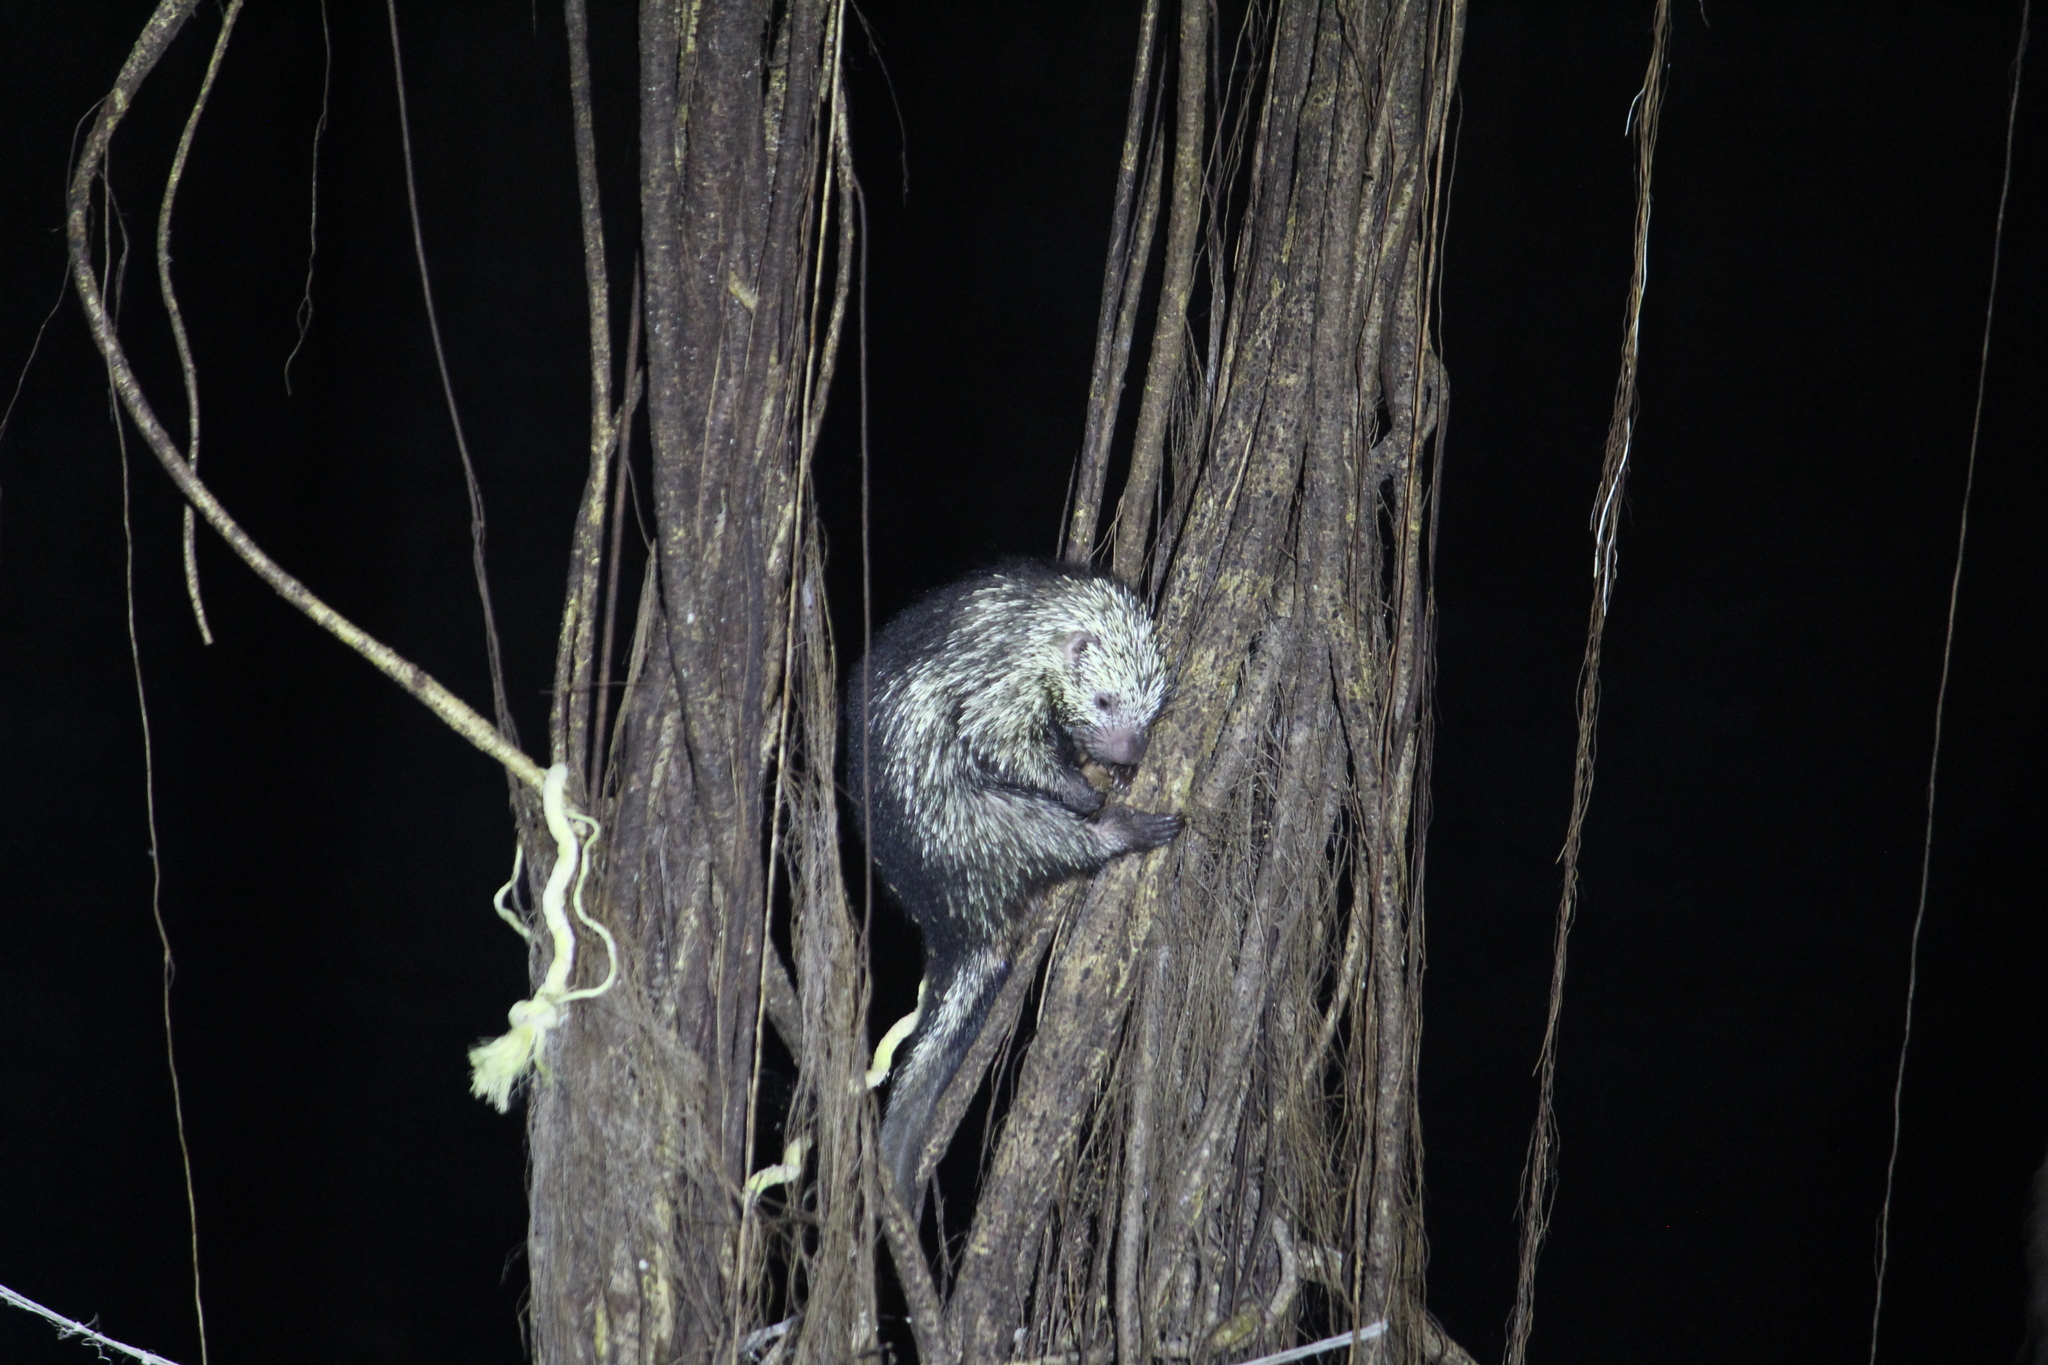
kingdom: Animalia
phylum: Chordata
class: Mammalia
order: Rodentia
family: Erethizontidae
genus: Sphiggurus
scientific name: Sphiggurus mexicanus
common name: Mexican hairy dwarf porcupine
